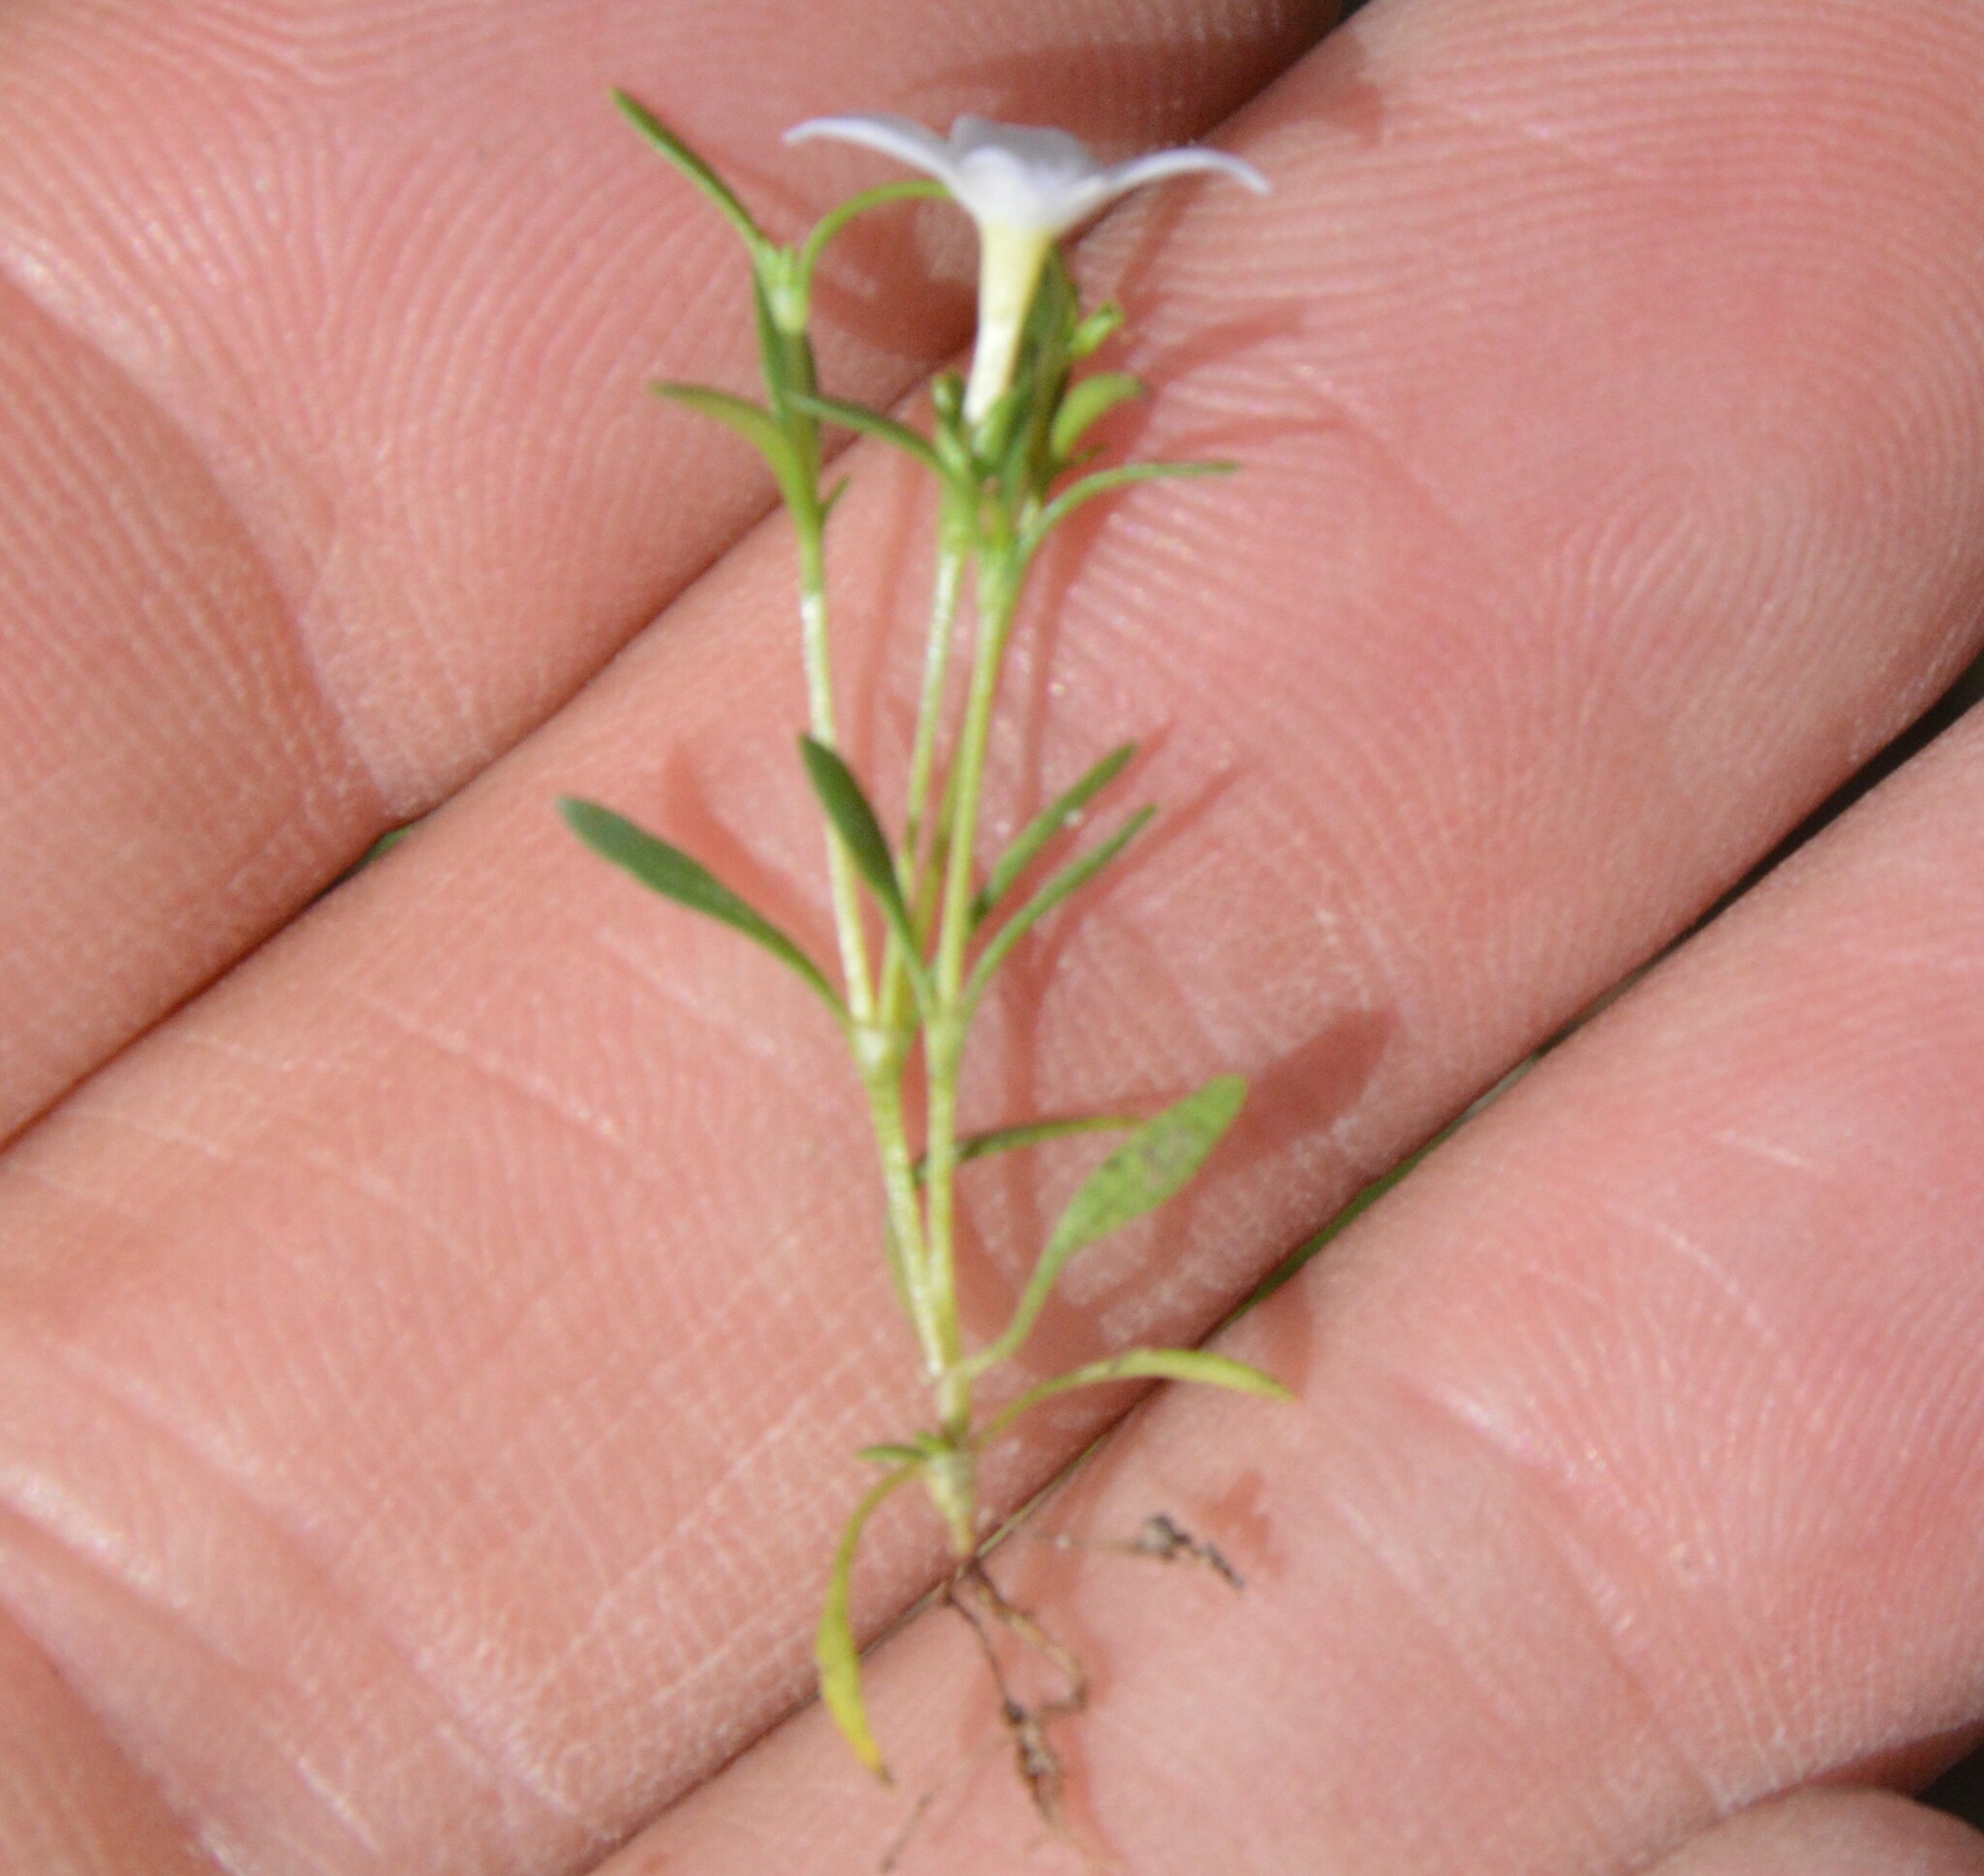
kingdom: Plantae
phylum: Tracheophyta
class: Magnoliopsida
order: Gentianales
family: Rubiaceae
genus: Houstonia
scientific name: Houstonia rosea
